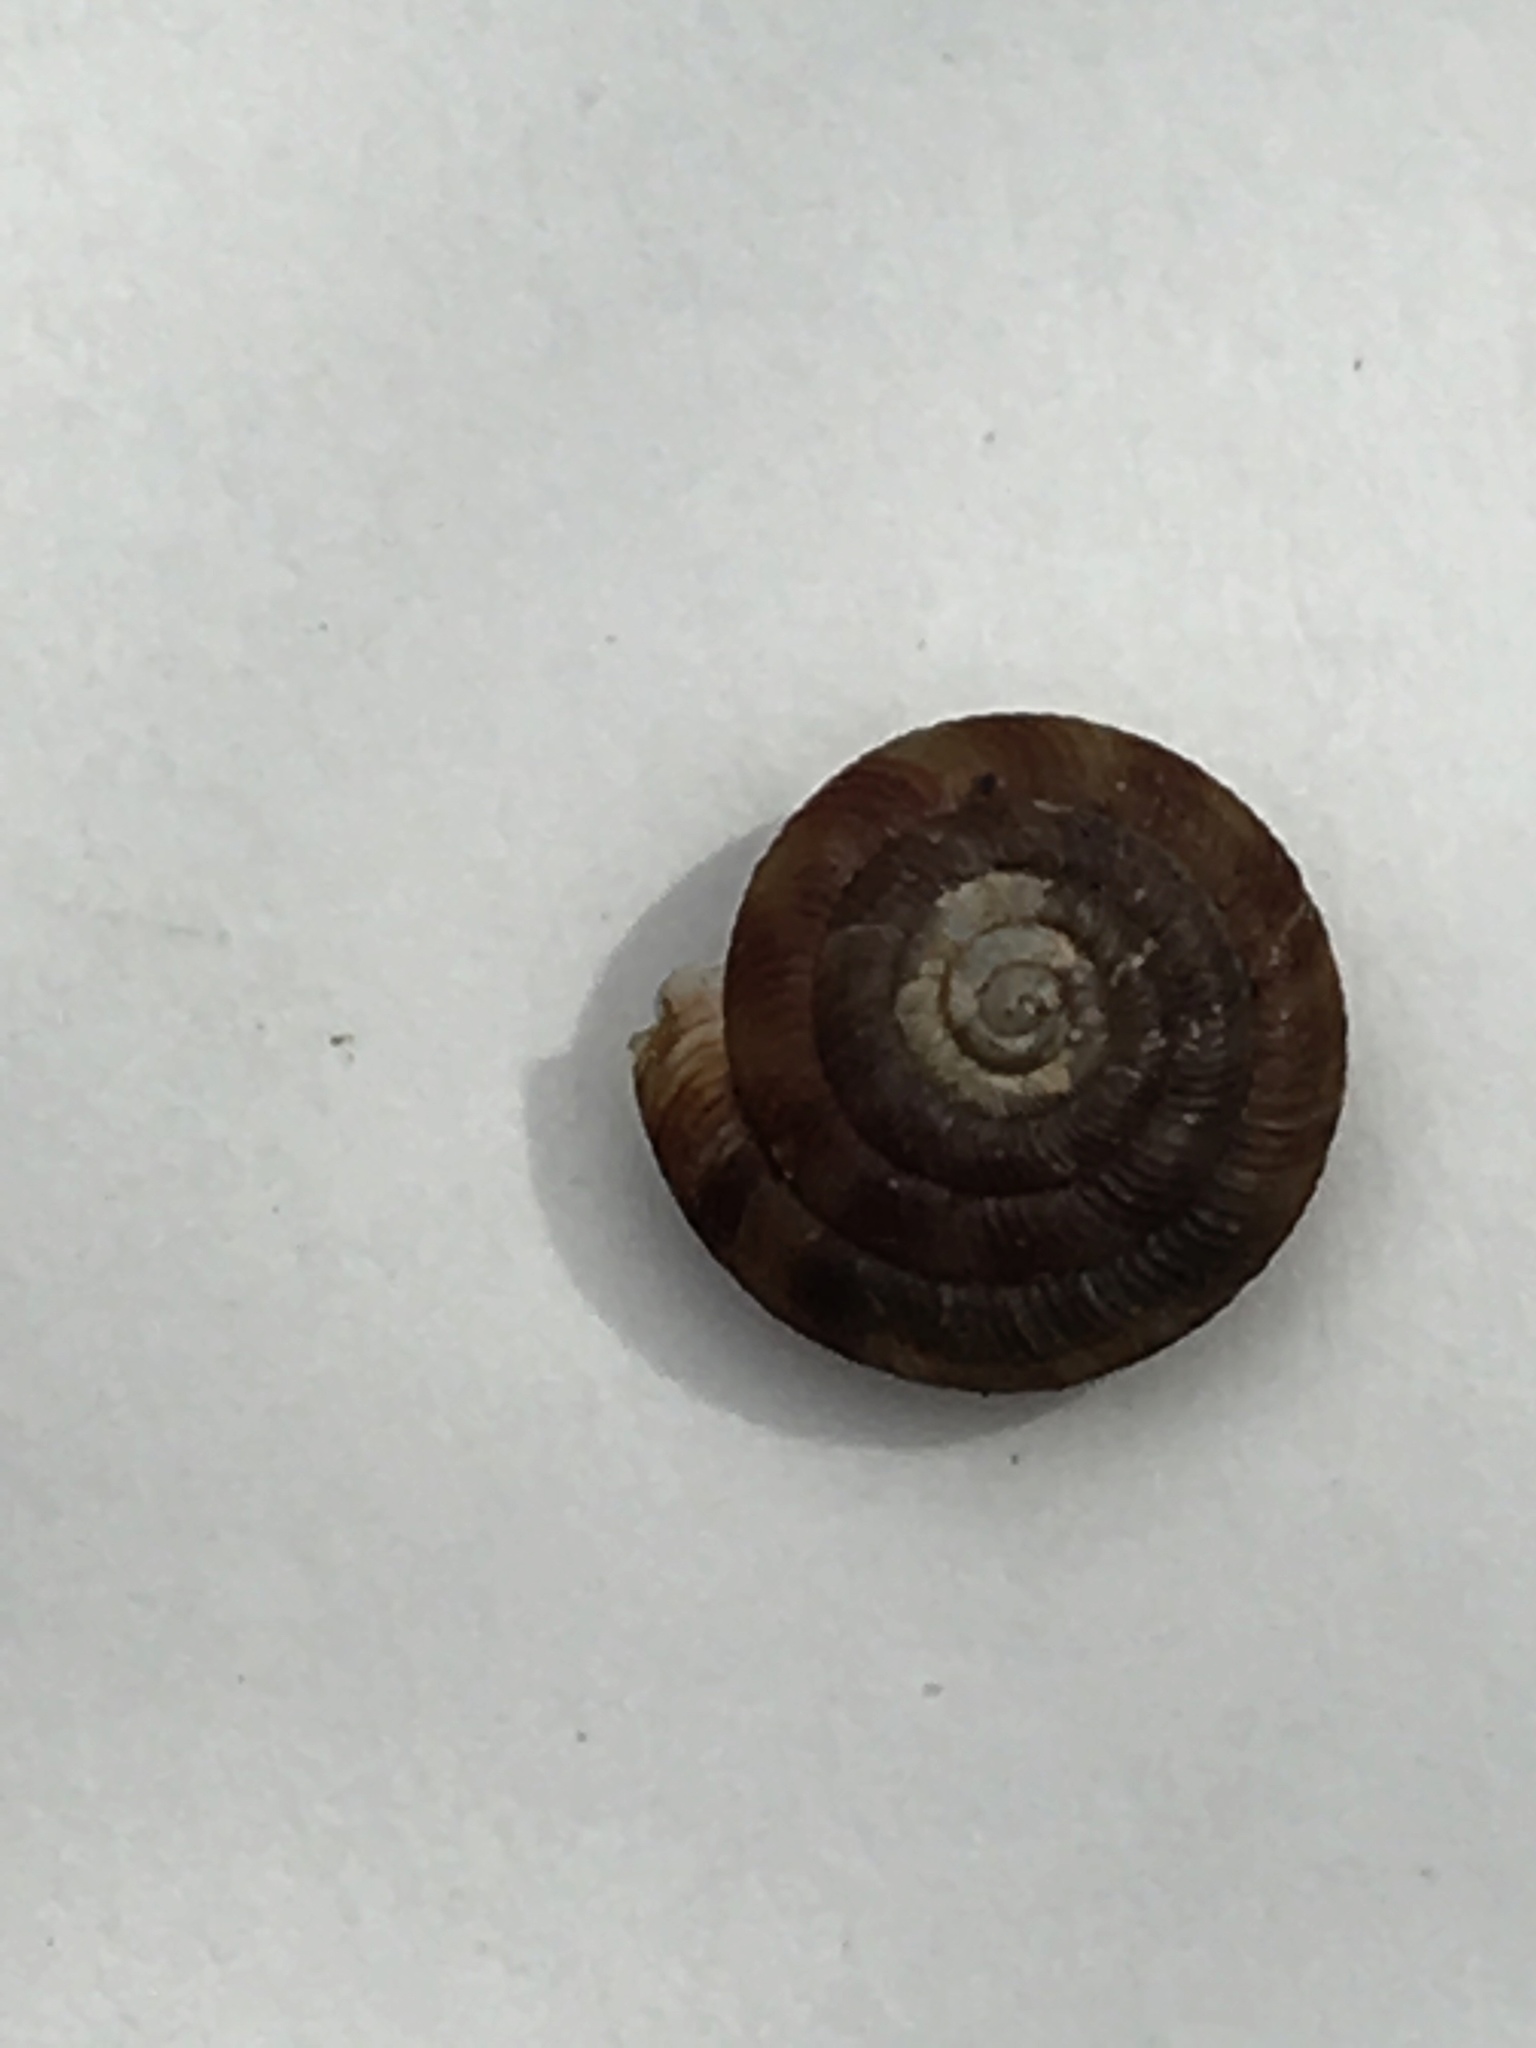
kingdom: Animalia
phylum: Mollusca
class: Gastropoda
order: Stylommatophora
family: Discidae
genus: Discus
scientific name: Discus rotundatus
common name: Rounded snail
